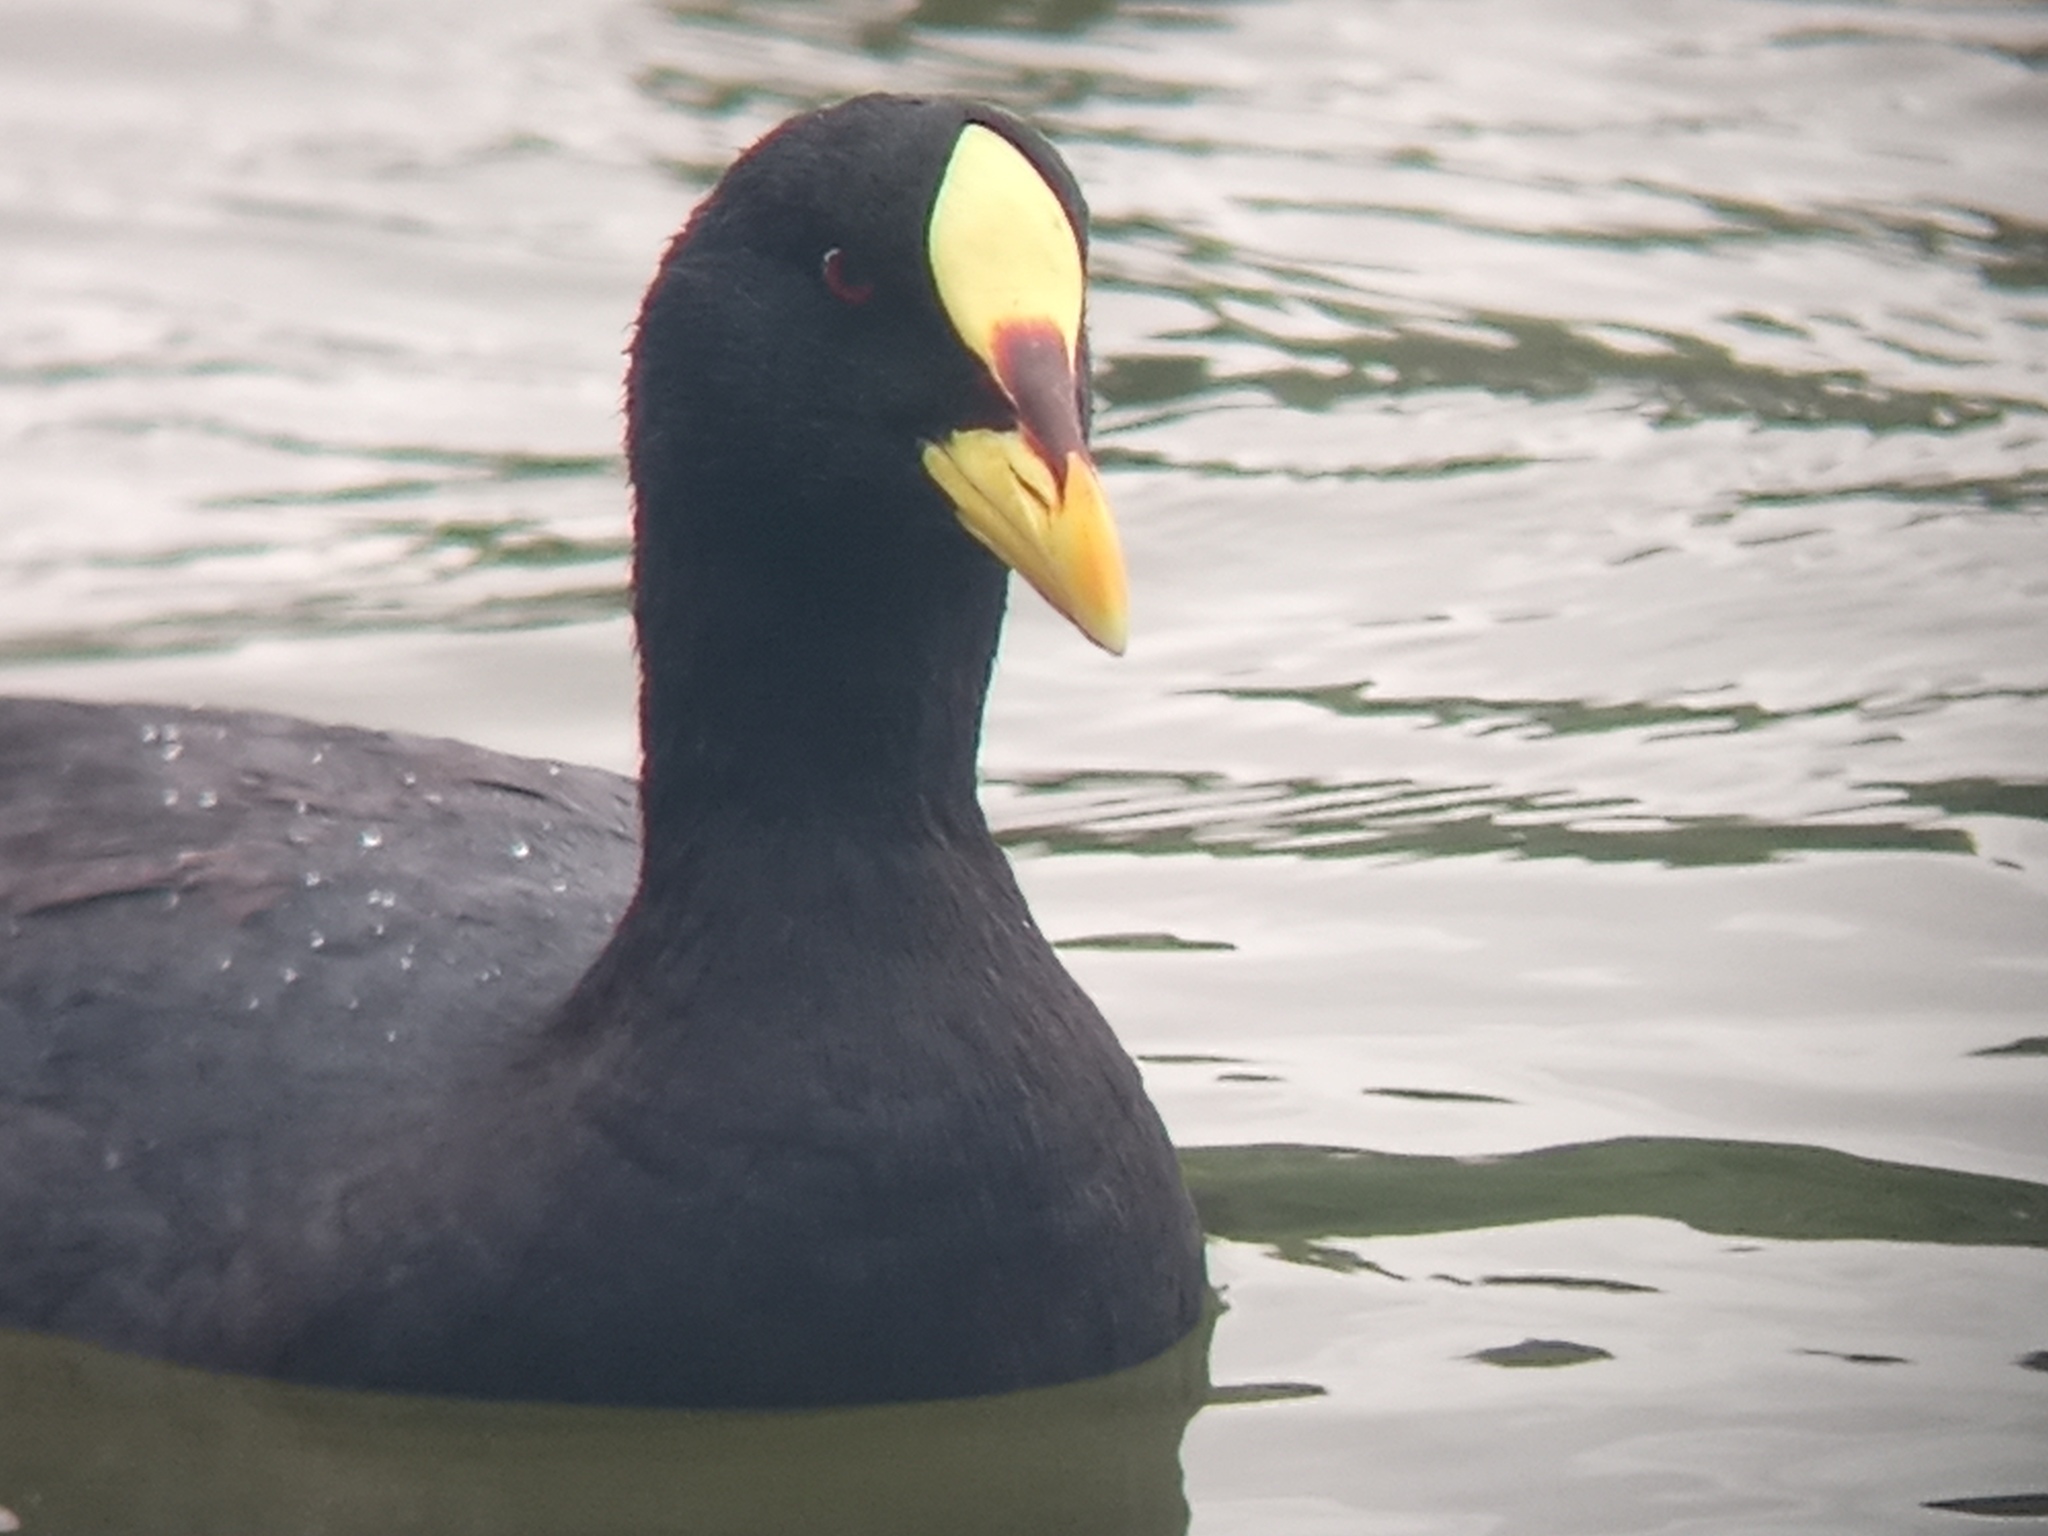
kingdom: Animalia
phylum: Chordata
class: Aves
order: Gruiformes
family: Rallidae
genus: Fulica
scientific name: Fulica armillata
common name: Red-gartered coot
